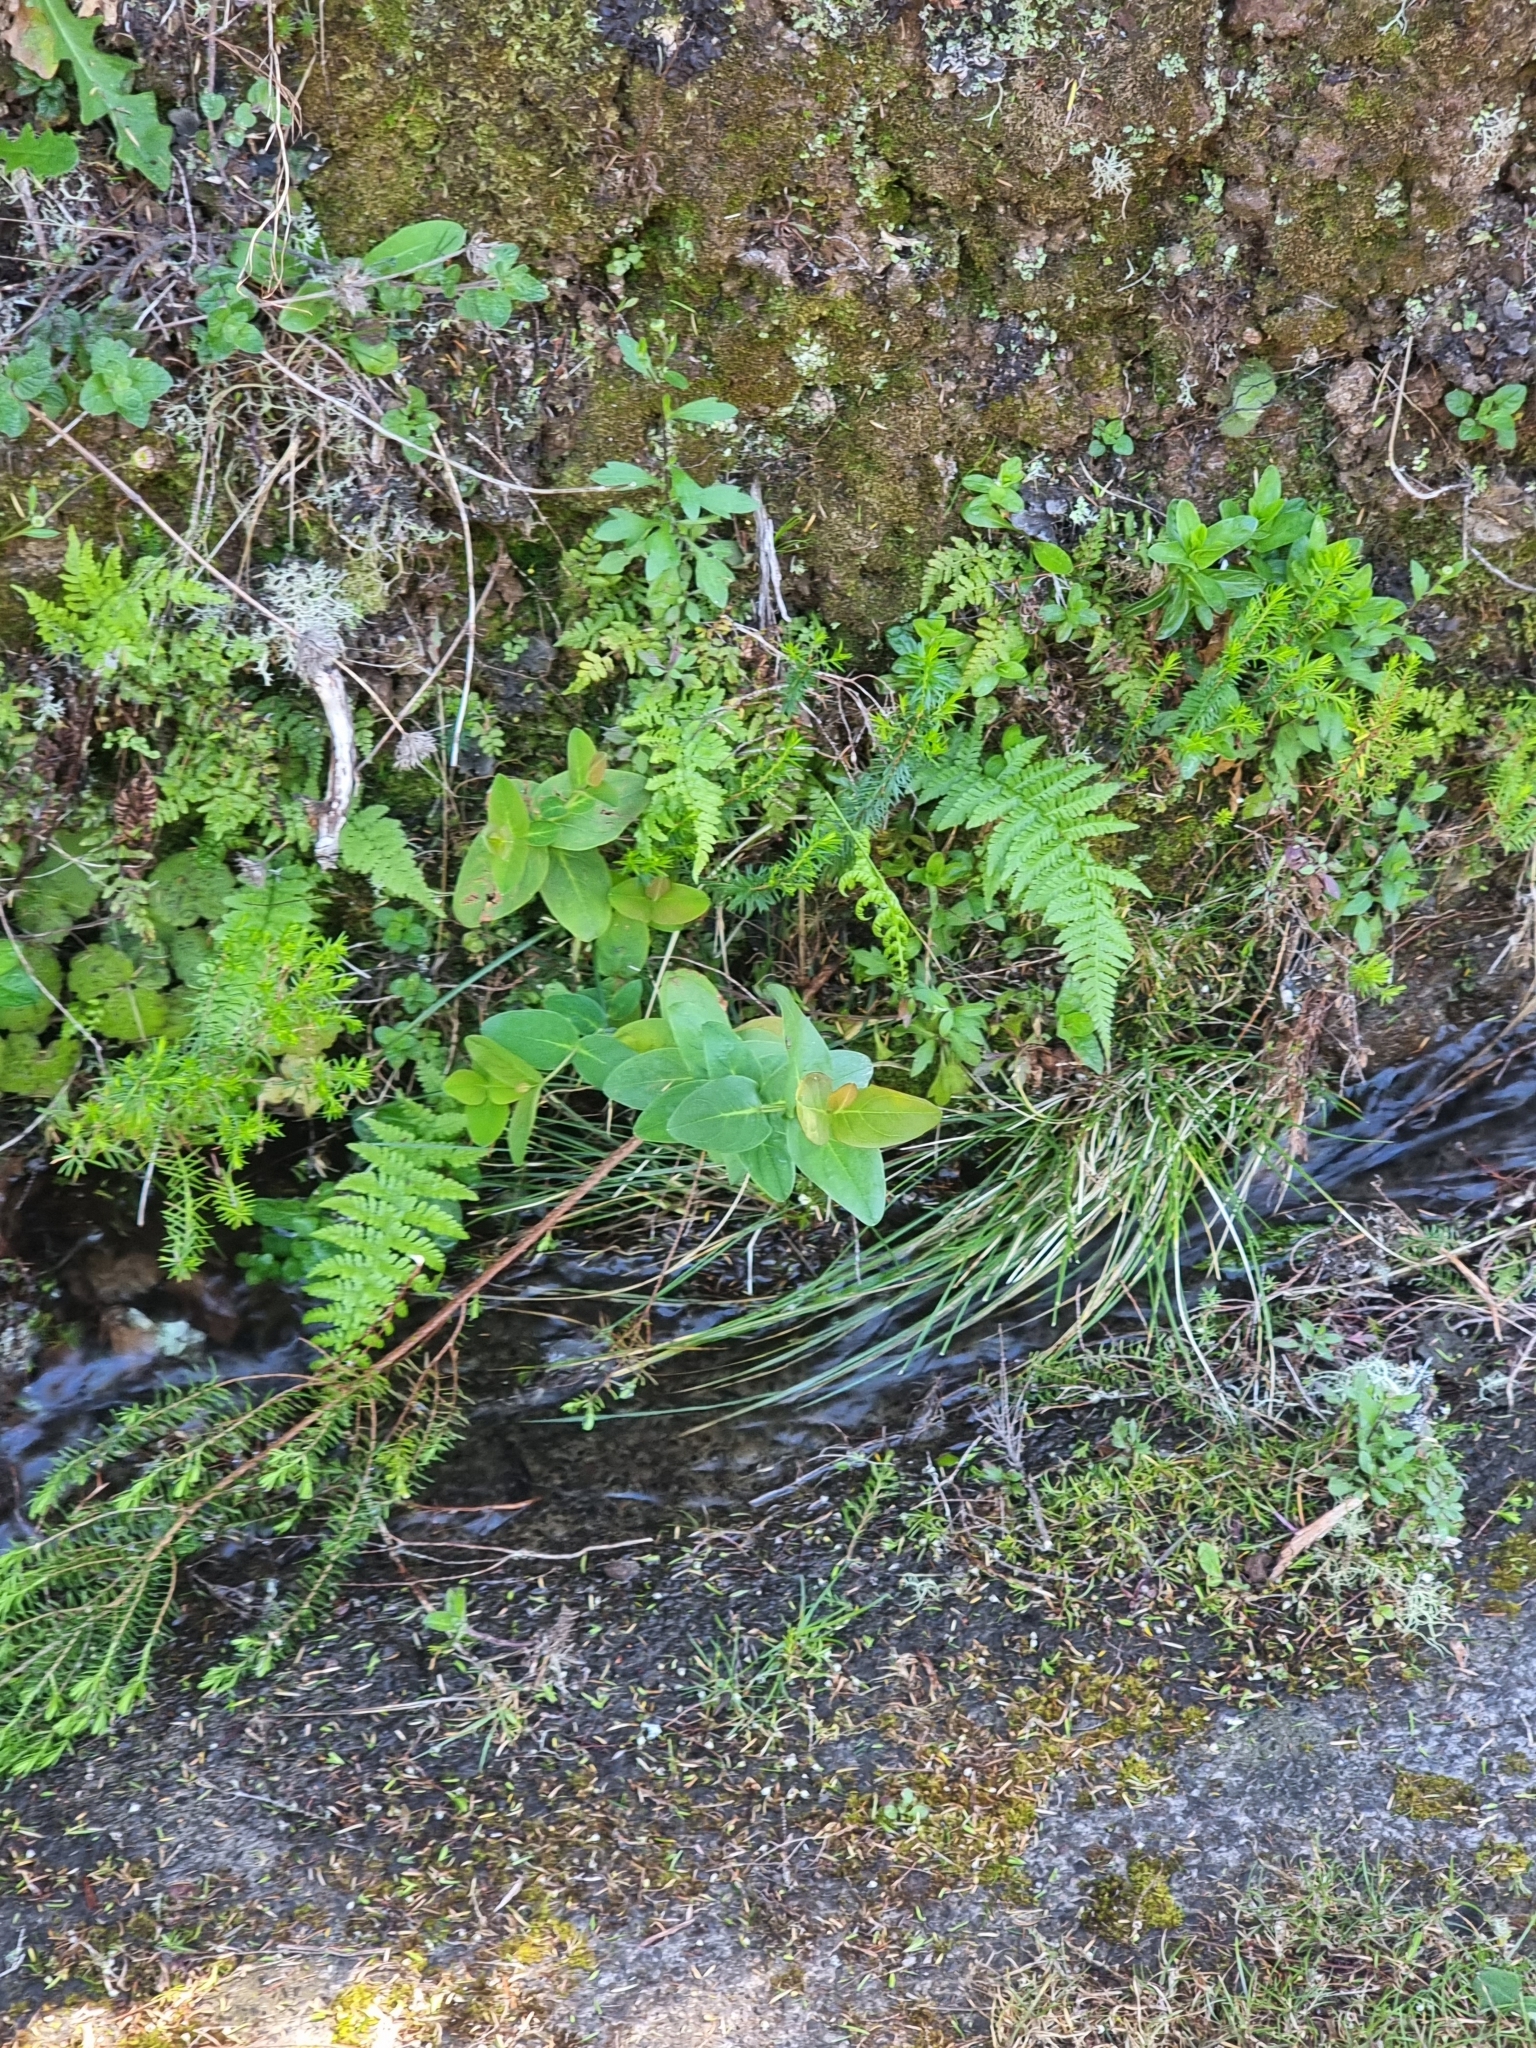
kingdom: Plantae
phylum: Tracheophyta
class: Magnoliopsida
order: Malpighiales
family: Hypericaceae
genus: Hypericum
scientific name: Hypericum grandifolium
